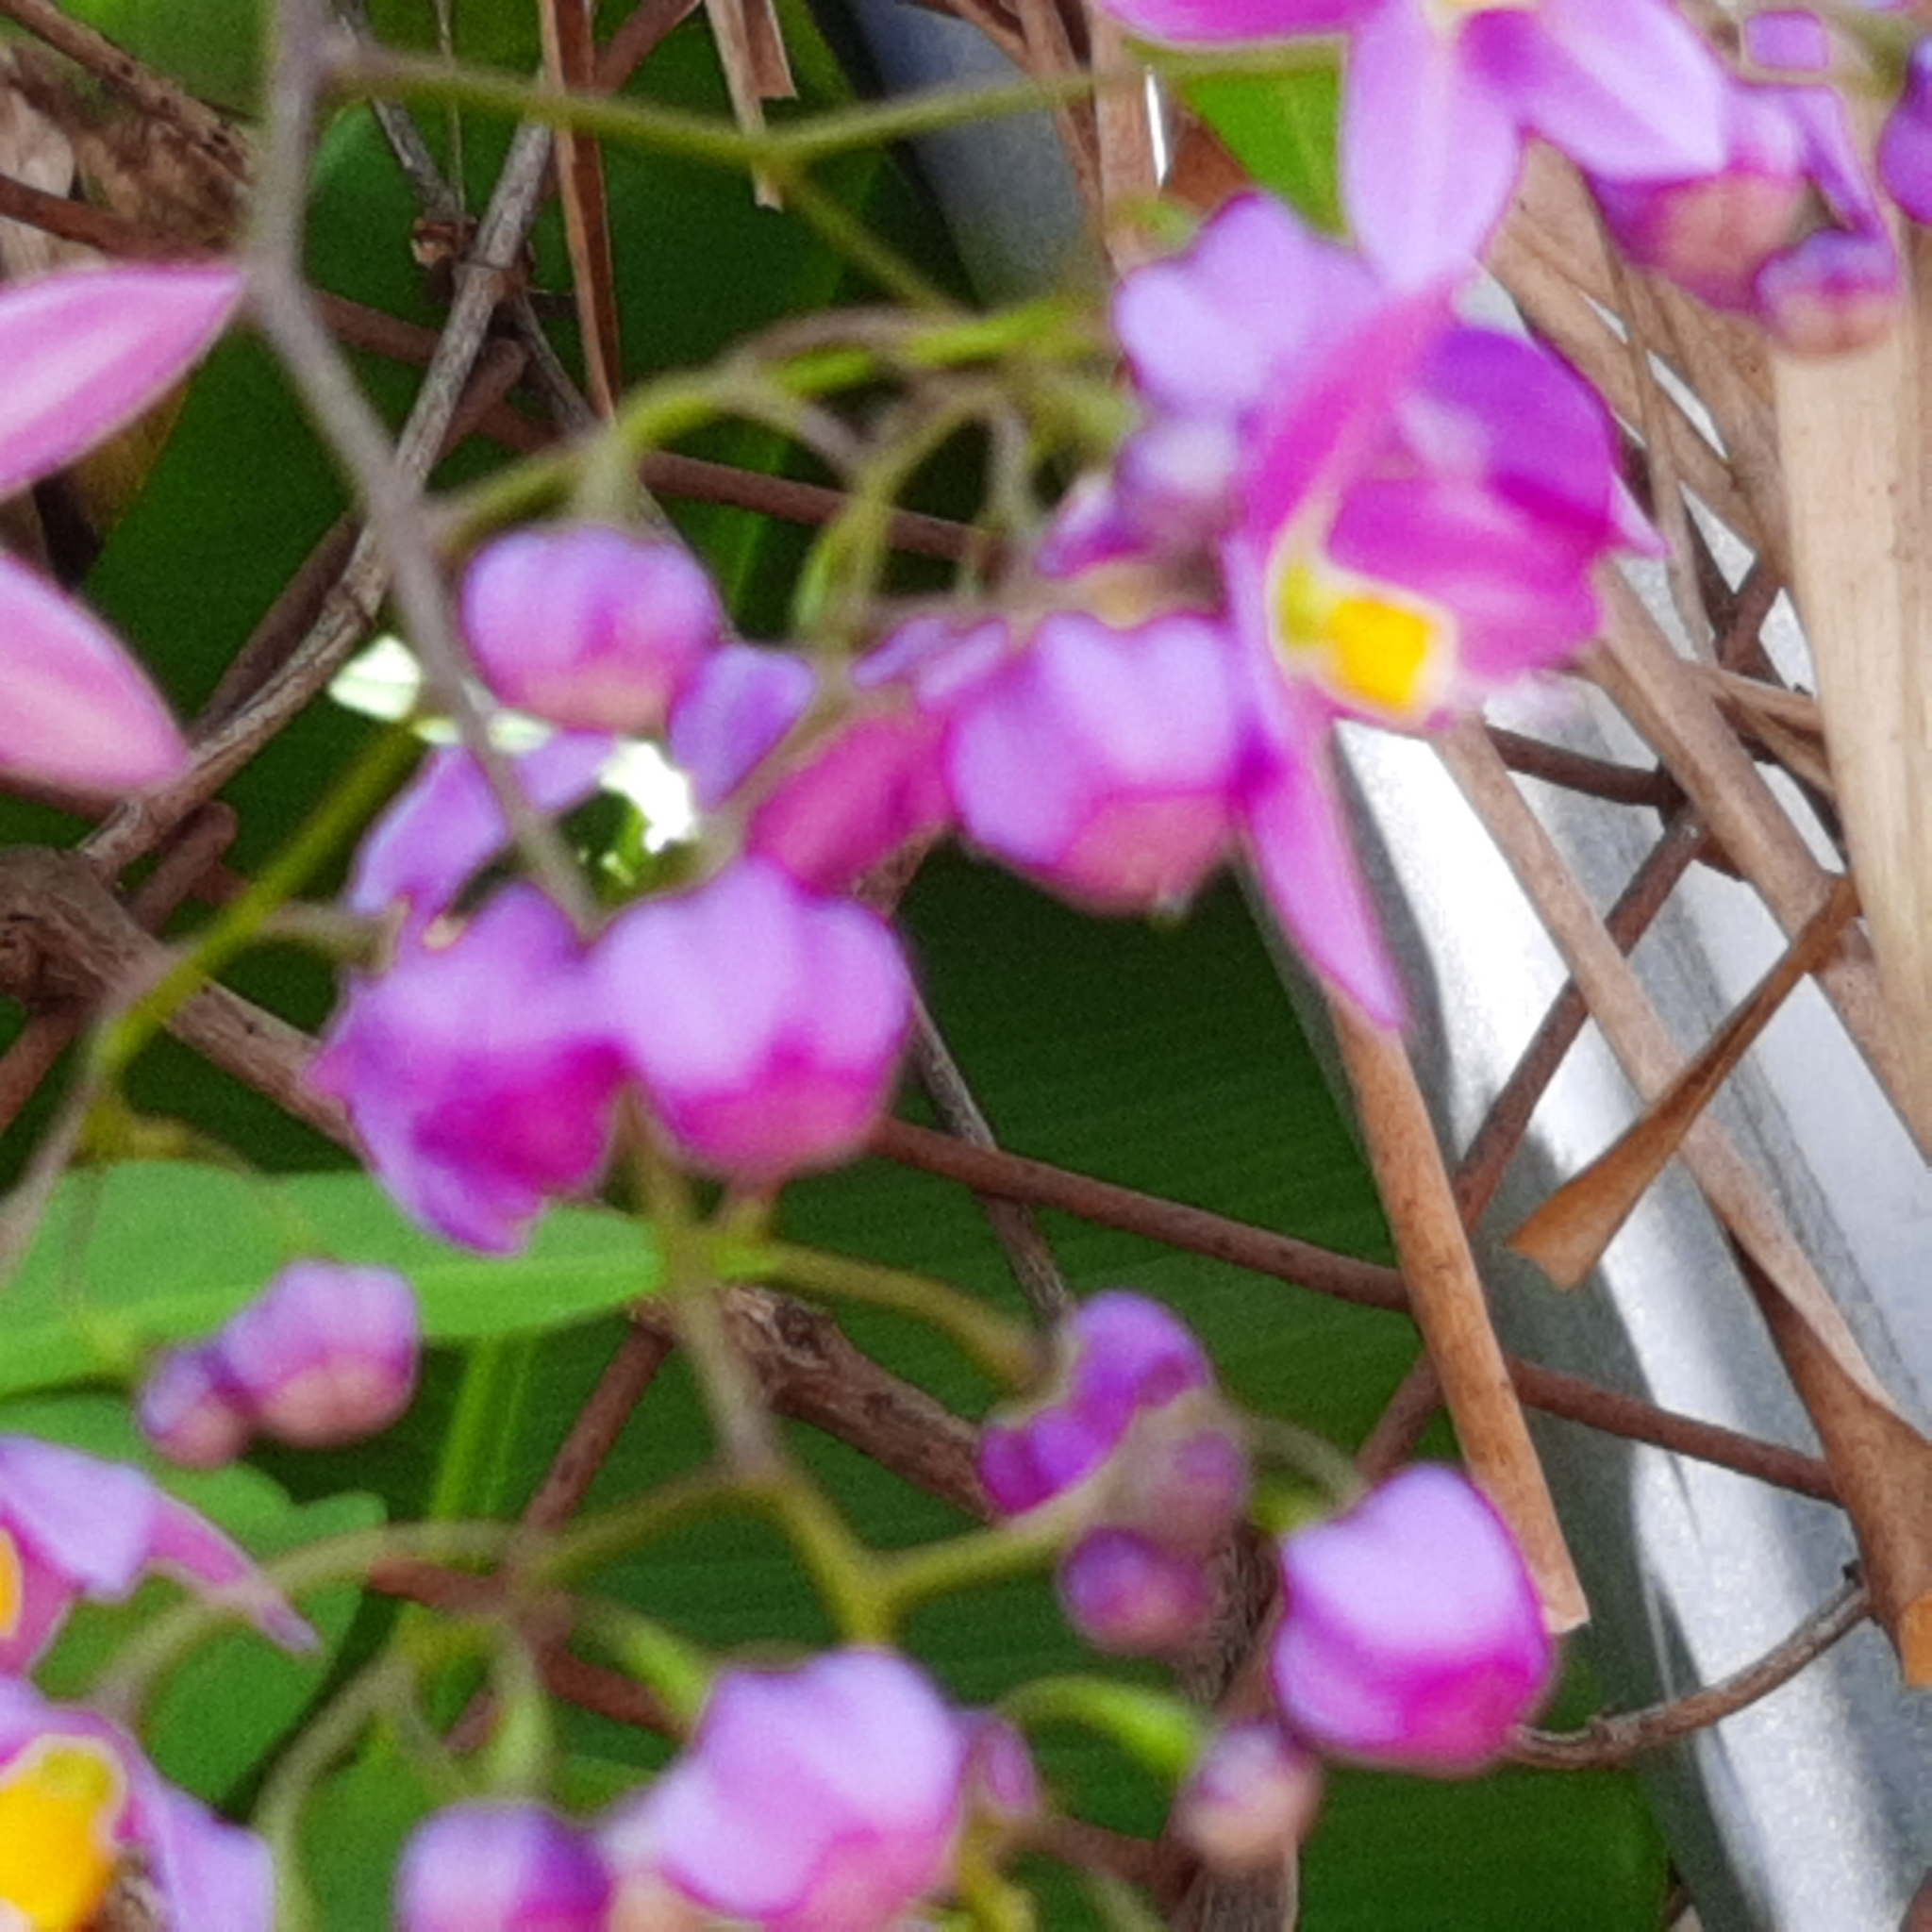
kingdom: Plantae
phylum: Tracheophyta
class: Magnoliopsida
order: Solanales
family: Solanaceae
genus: Solanum
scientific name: Solanum seaforthianum
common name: Brazilian nightshade
